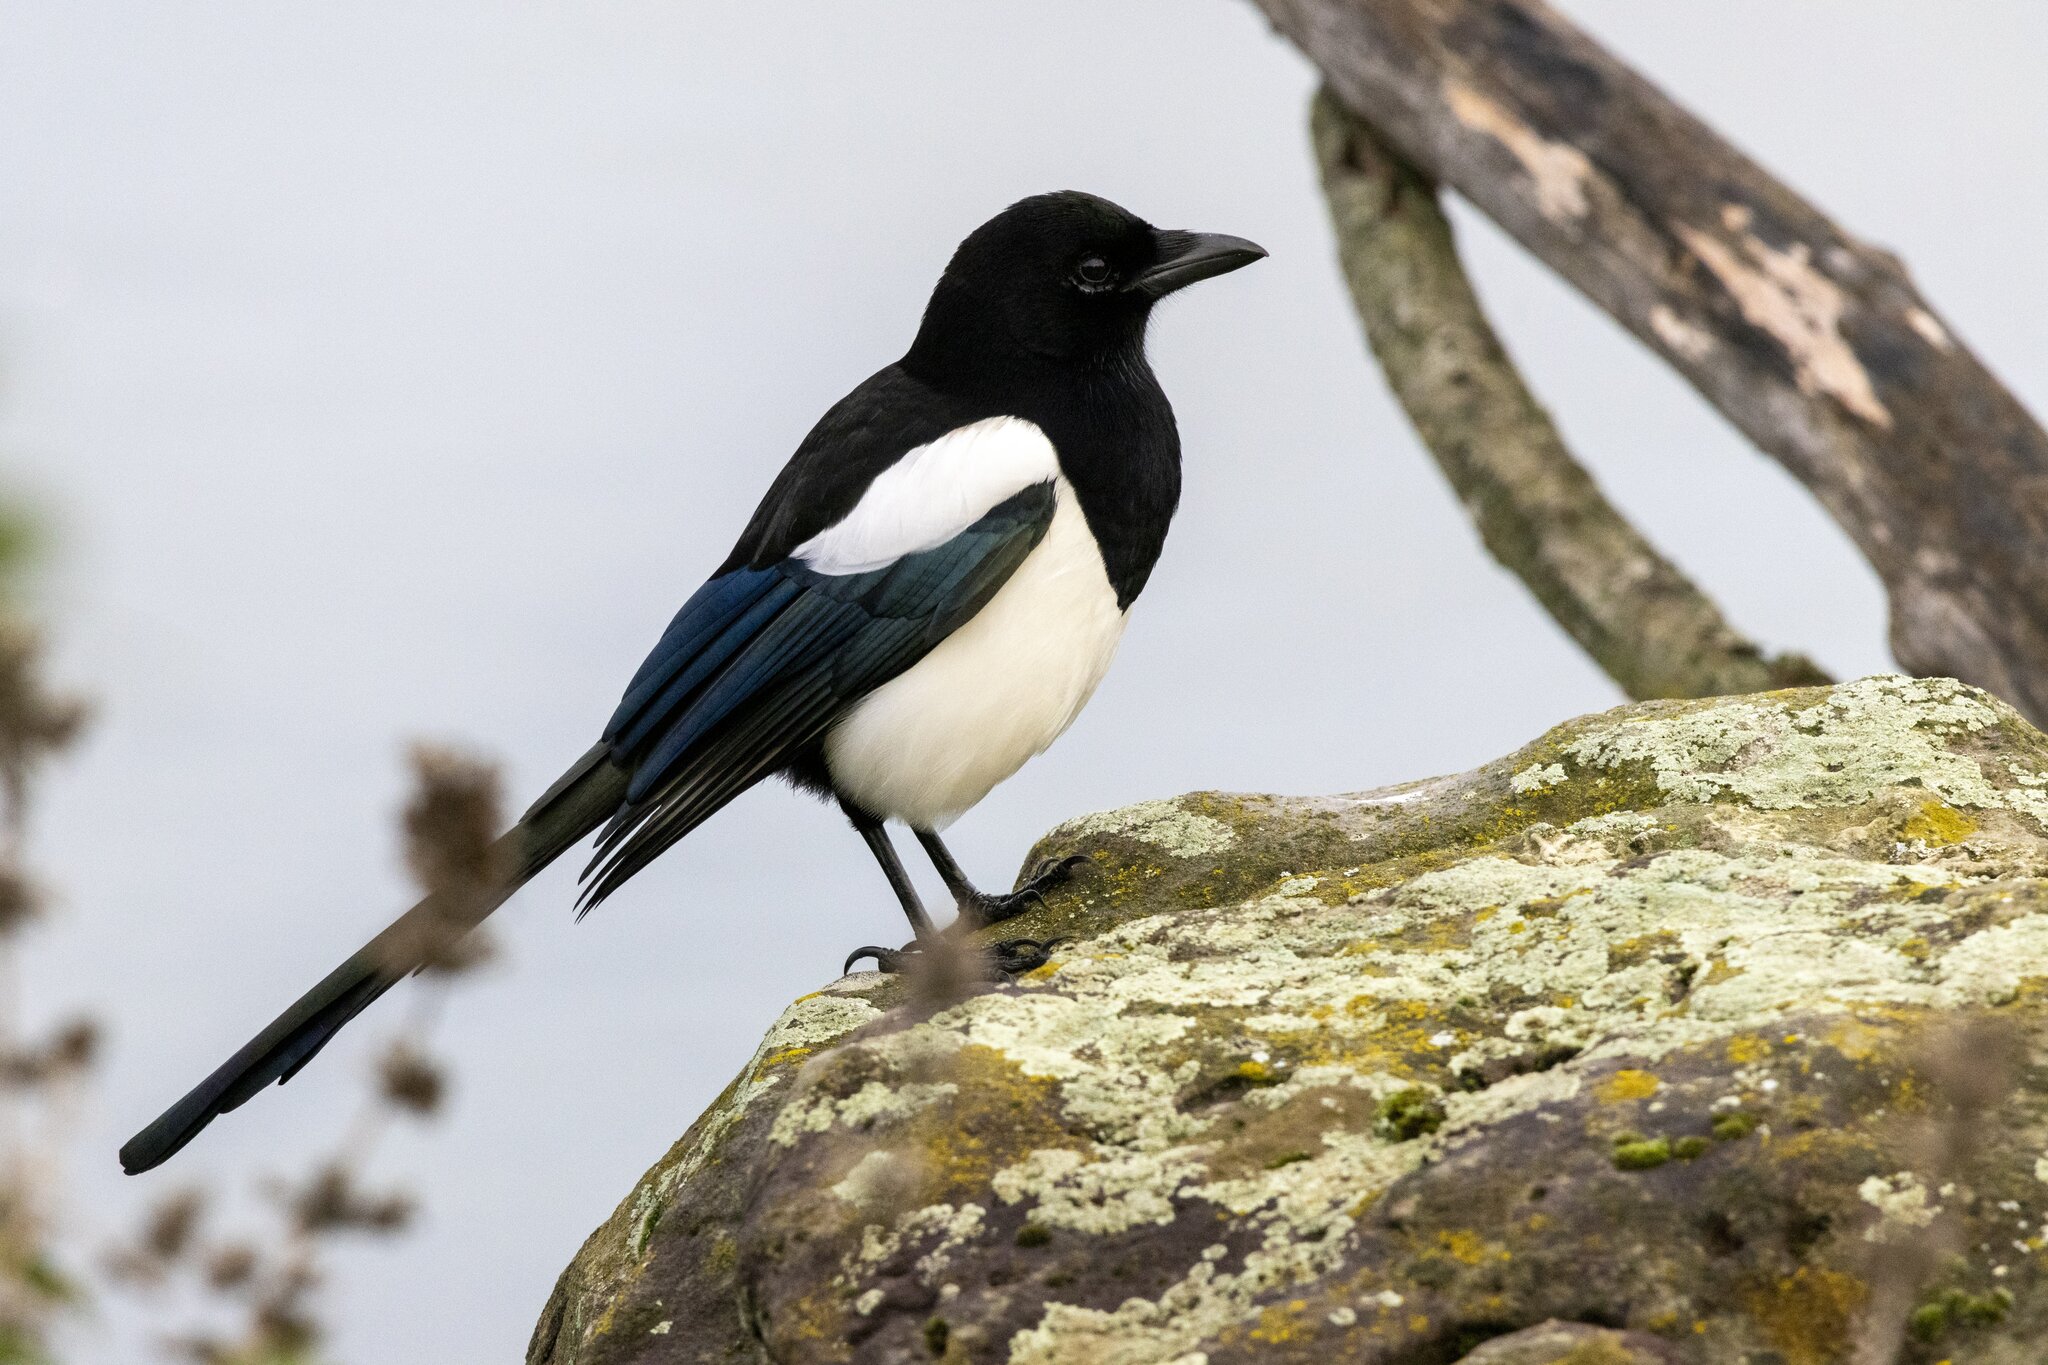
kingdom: Animalia
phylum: Chordata
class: Aves
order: Passeriformes
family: Corvidae
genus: Pica
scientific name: Pica pica
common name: Eurasian magpie
